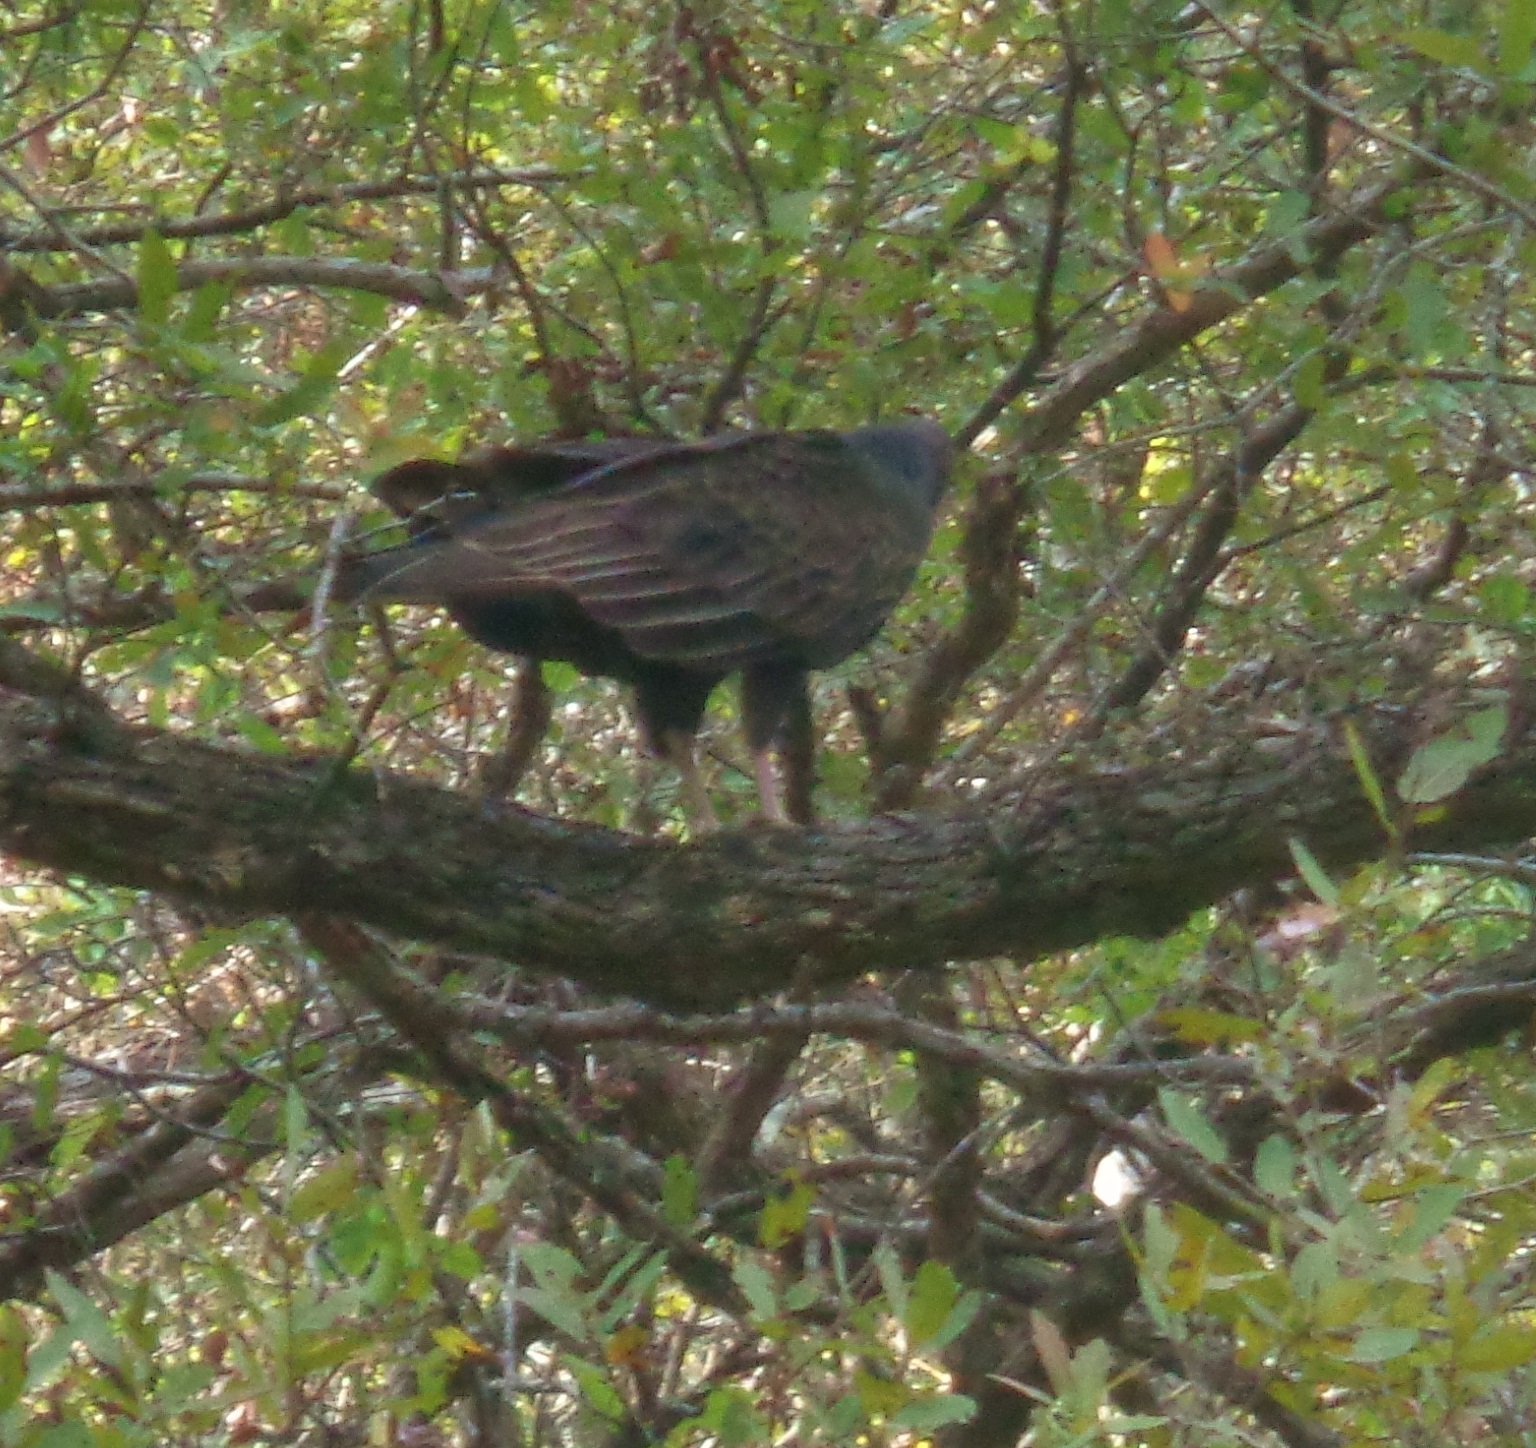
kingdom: Animalia
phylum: Chordata
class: Aves
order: Accipitriformes
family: Cathartidae
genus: Cathartes
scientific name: Cathartes aura
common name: Turkey vulture
